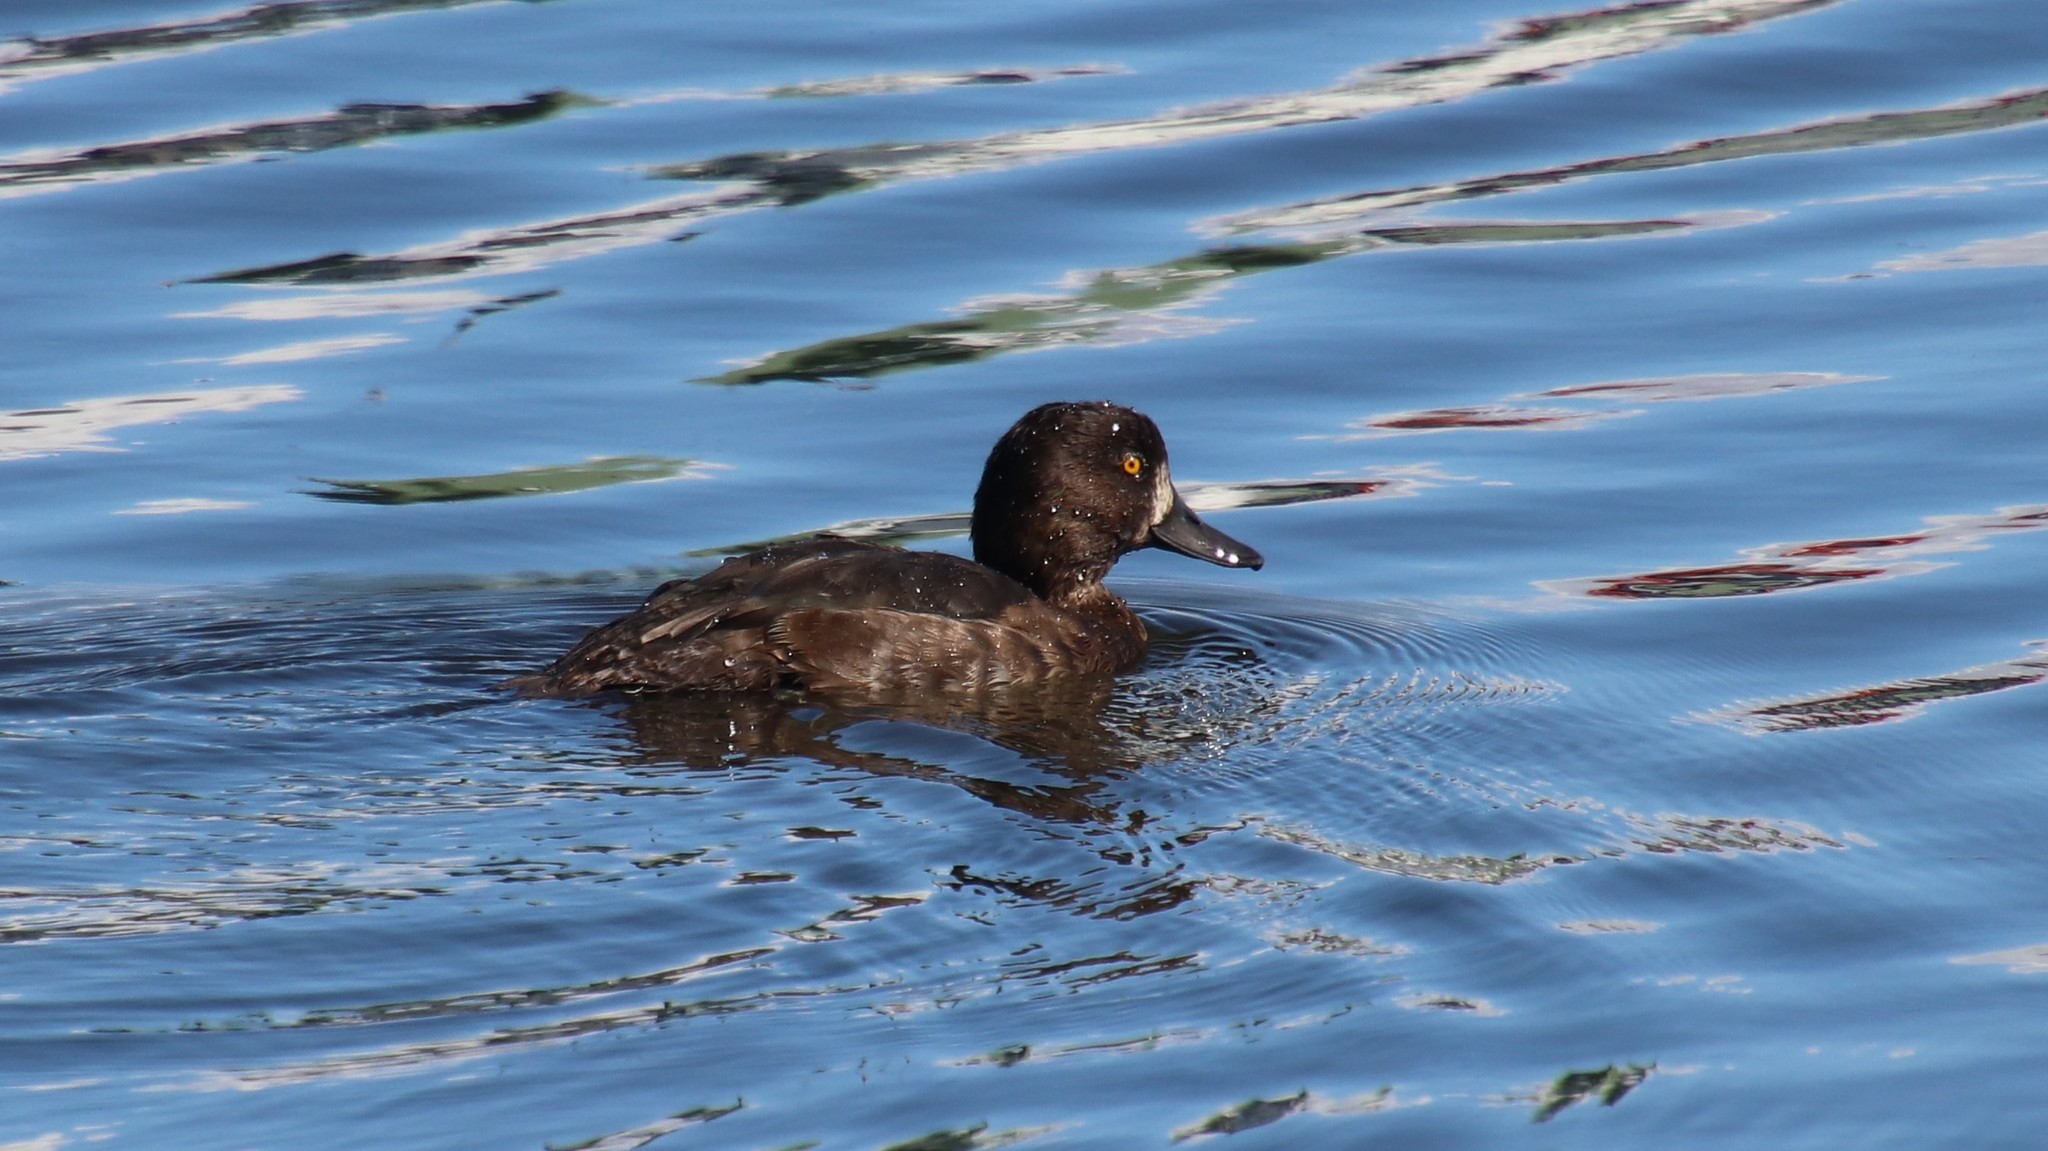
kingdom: Animalia
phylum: Chordata
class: Aves
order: Anseriformes
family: Anatidae
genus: Aythya
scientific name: Aythya fuligula
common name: Tufted duck
